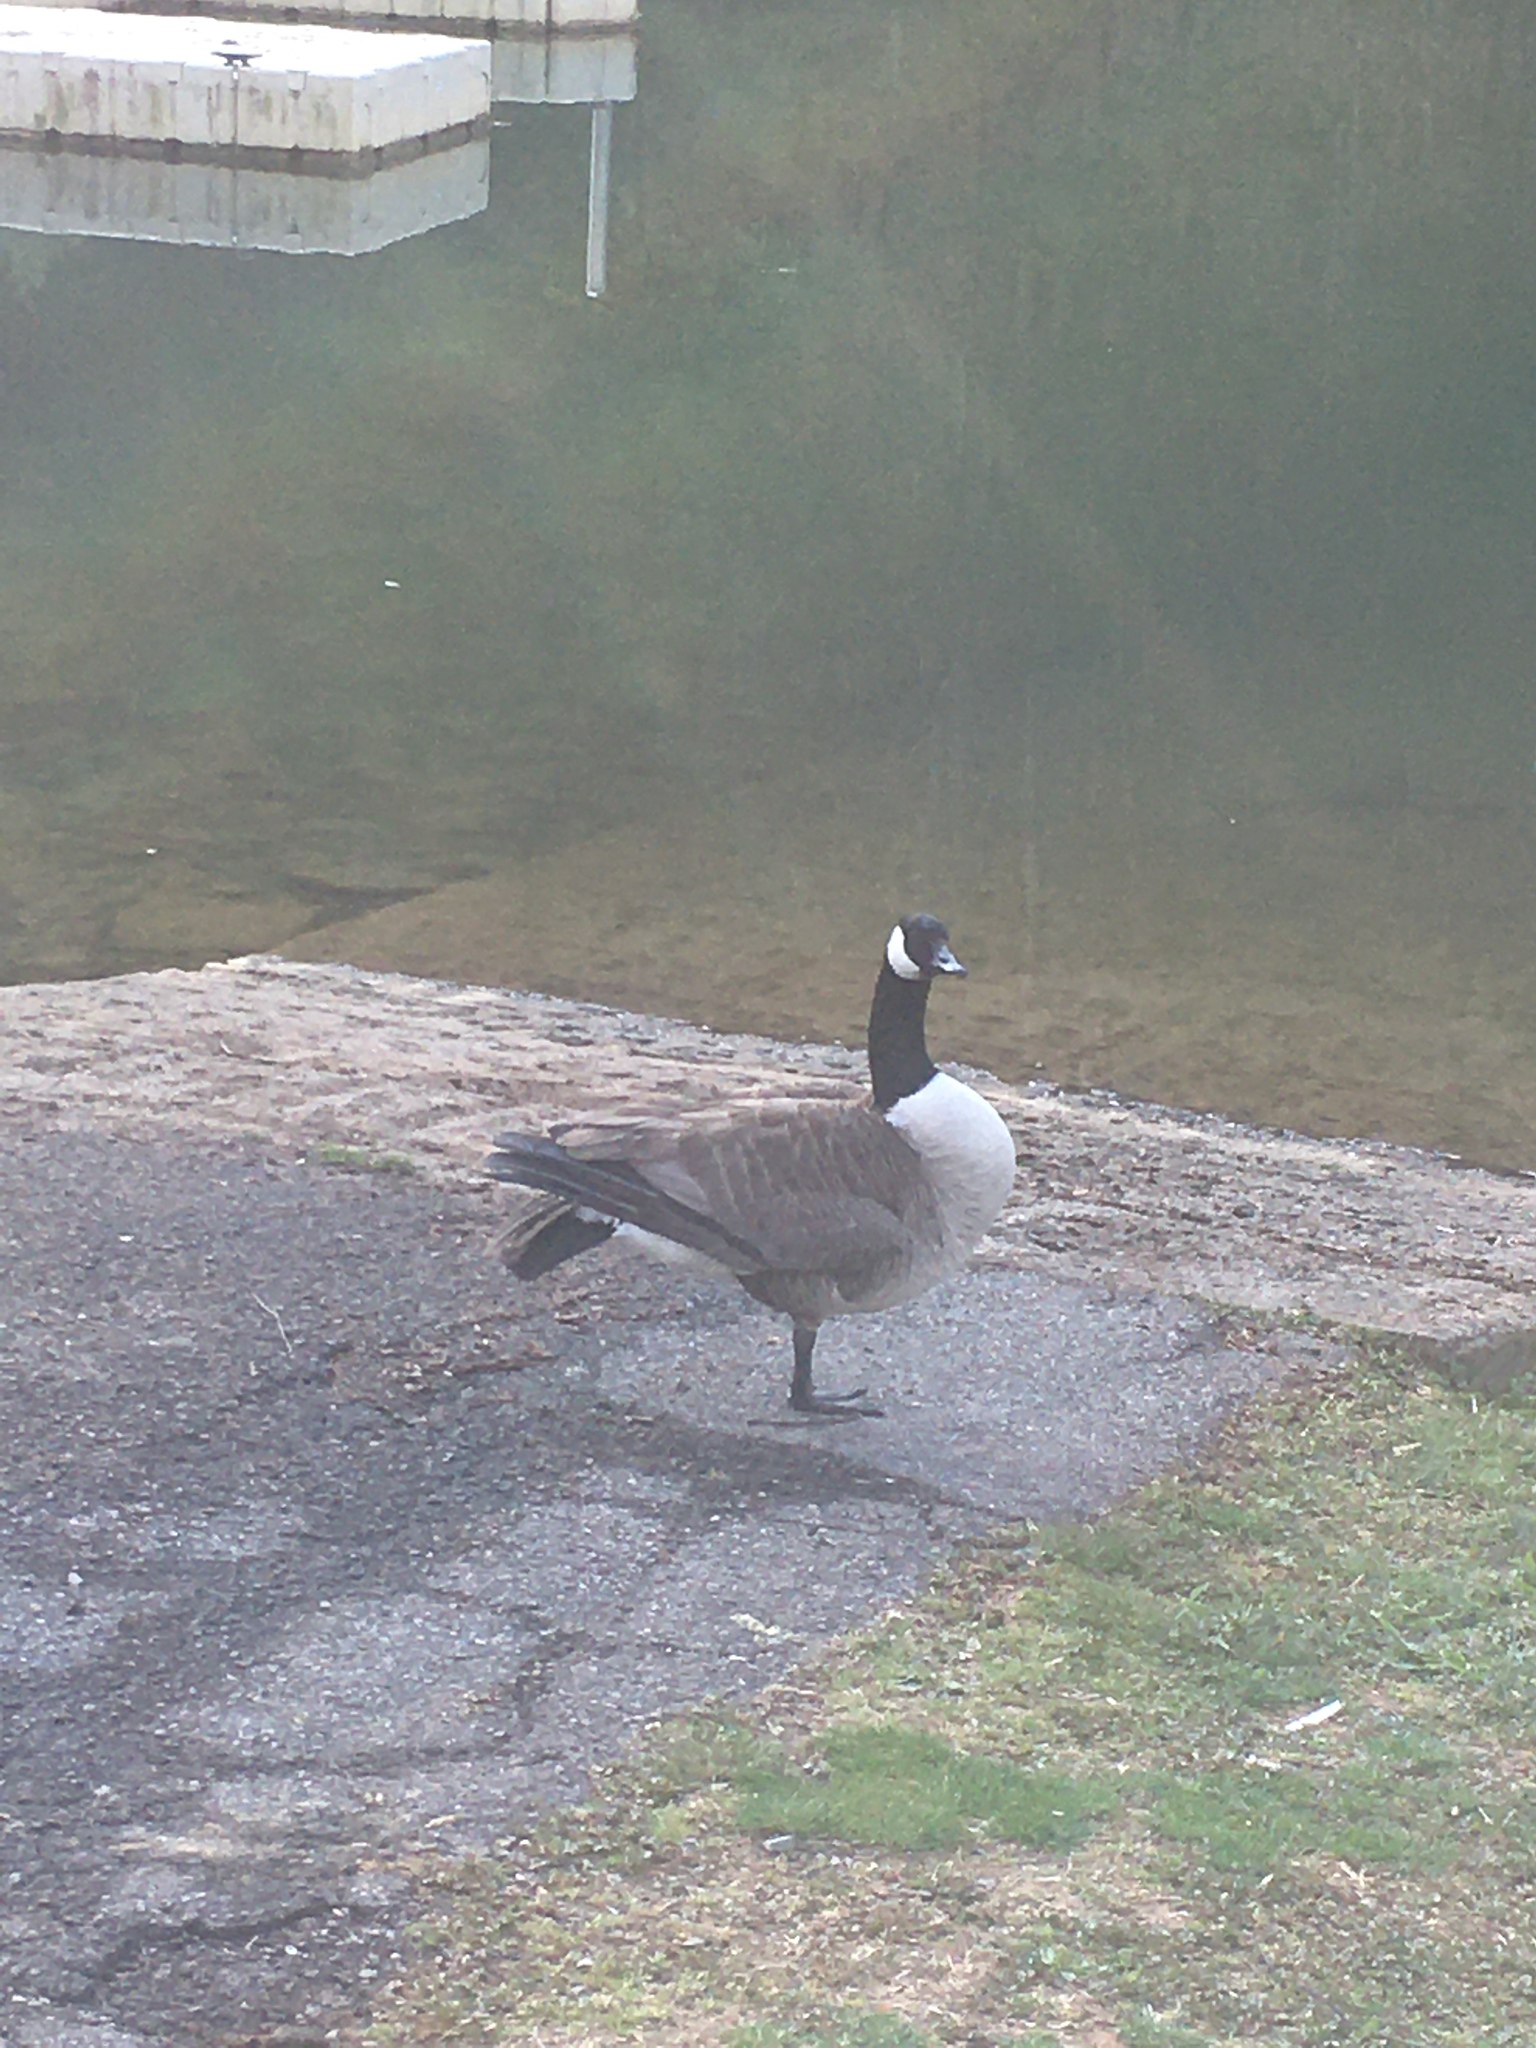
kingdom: Animalia
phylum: Chordata
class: Aves
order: Anseriformes
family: Anatidae
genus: Branta
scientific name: Branta canadensis
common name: Canada goose
